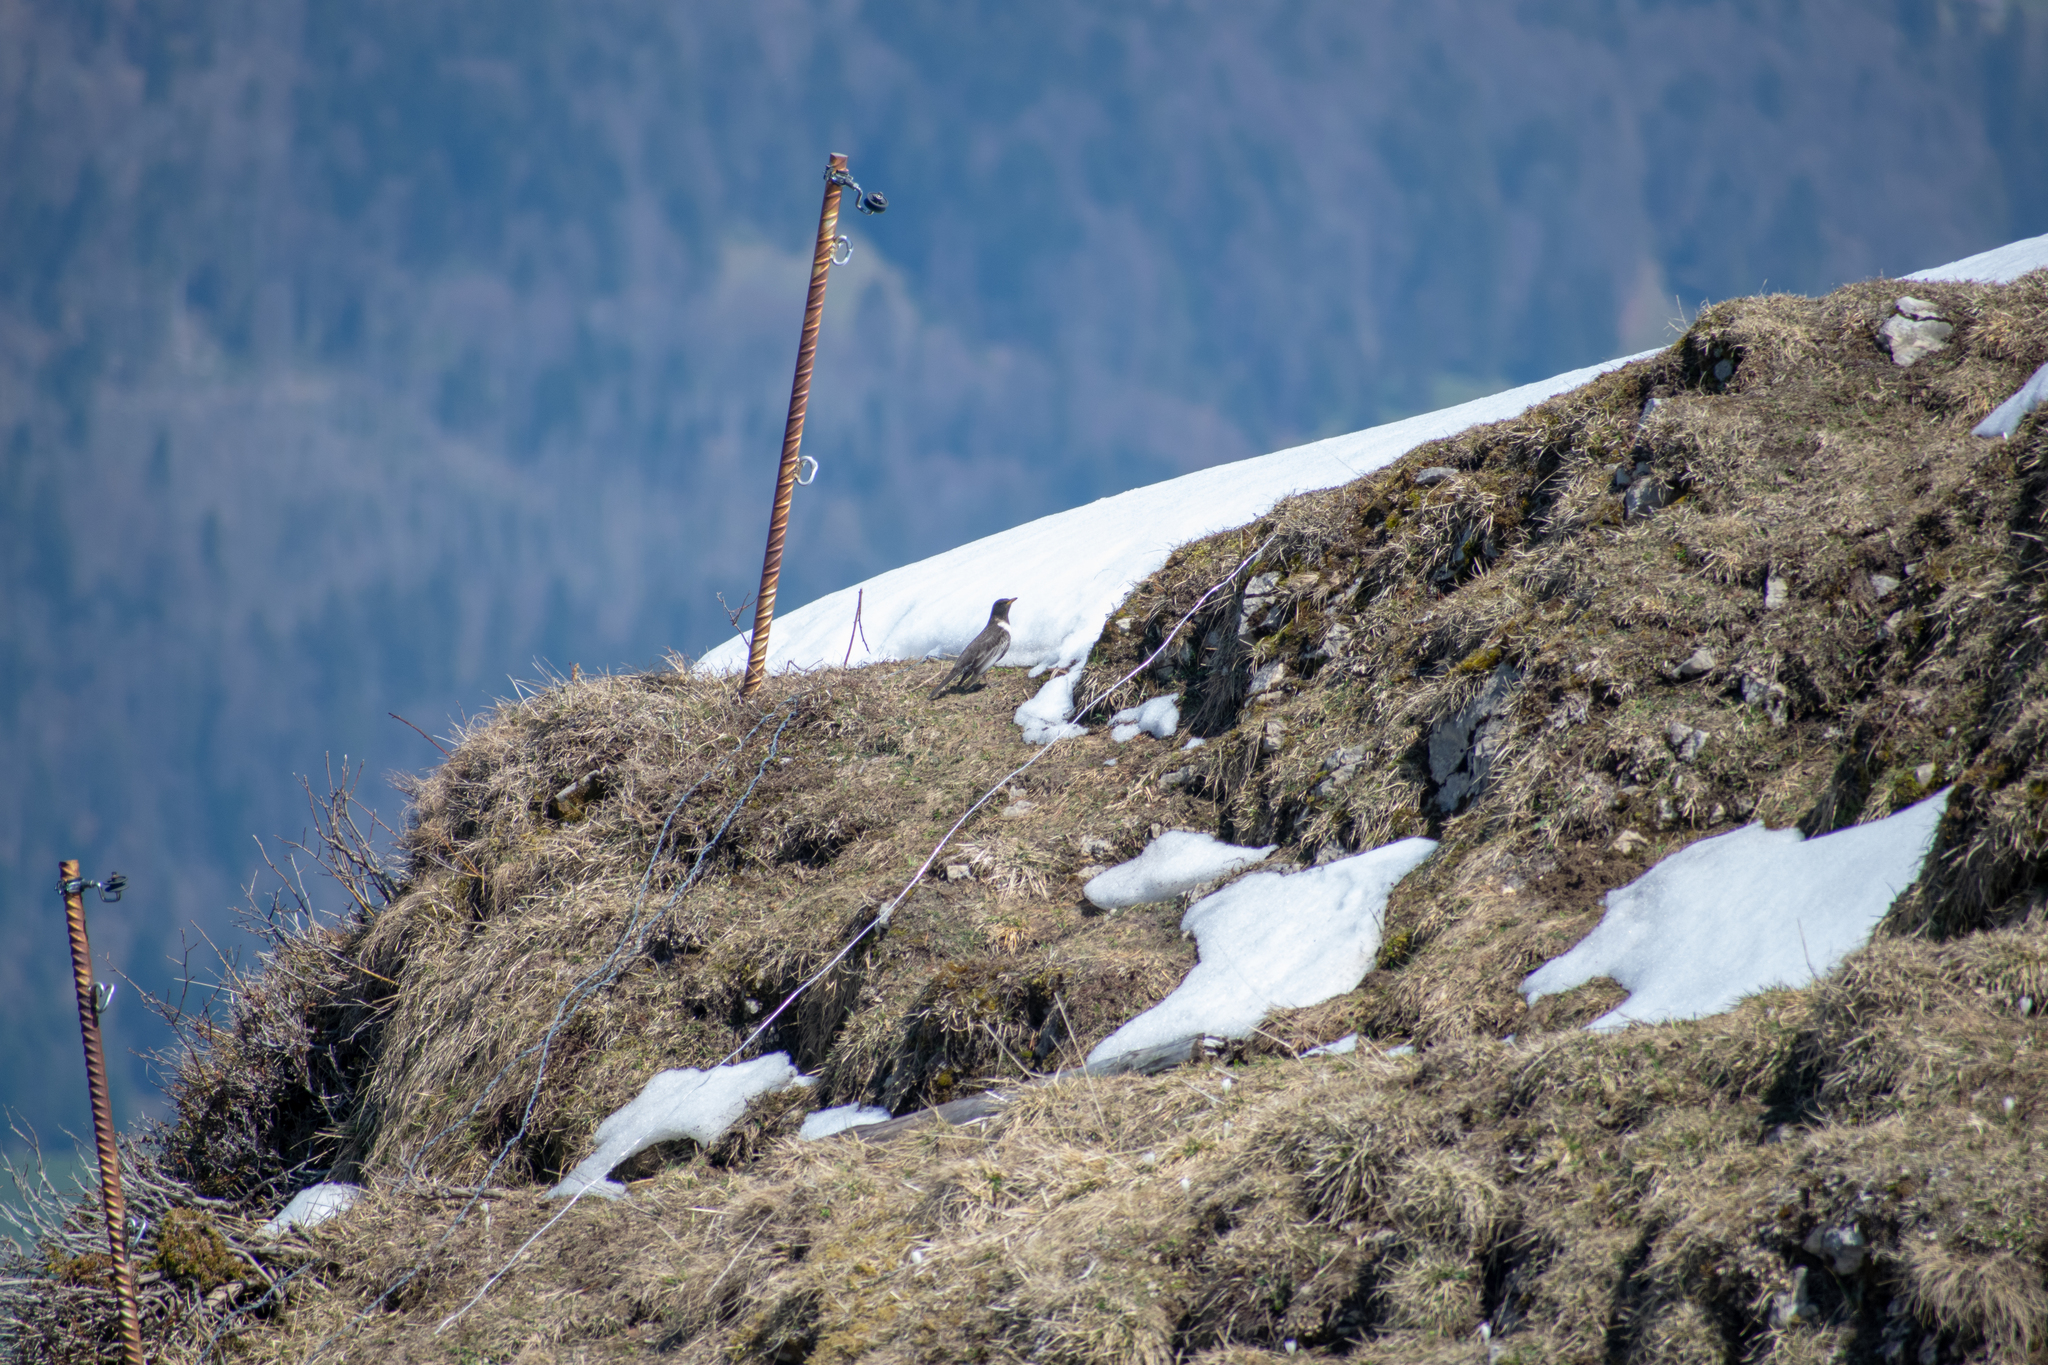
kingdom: Animalia
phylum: Chordata
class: Aves
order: Passeriformes
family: Turdidae
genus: Turdus
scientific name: Turdus torquatus
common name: Ring ouzel
